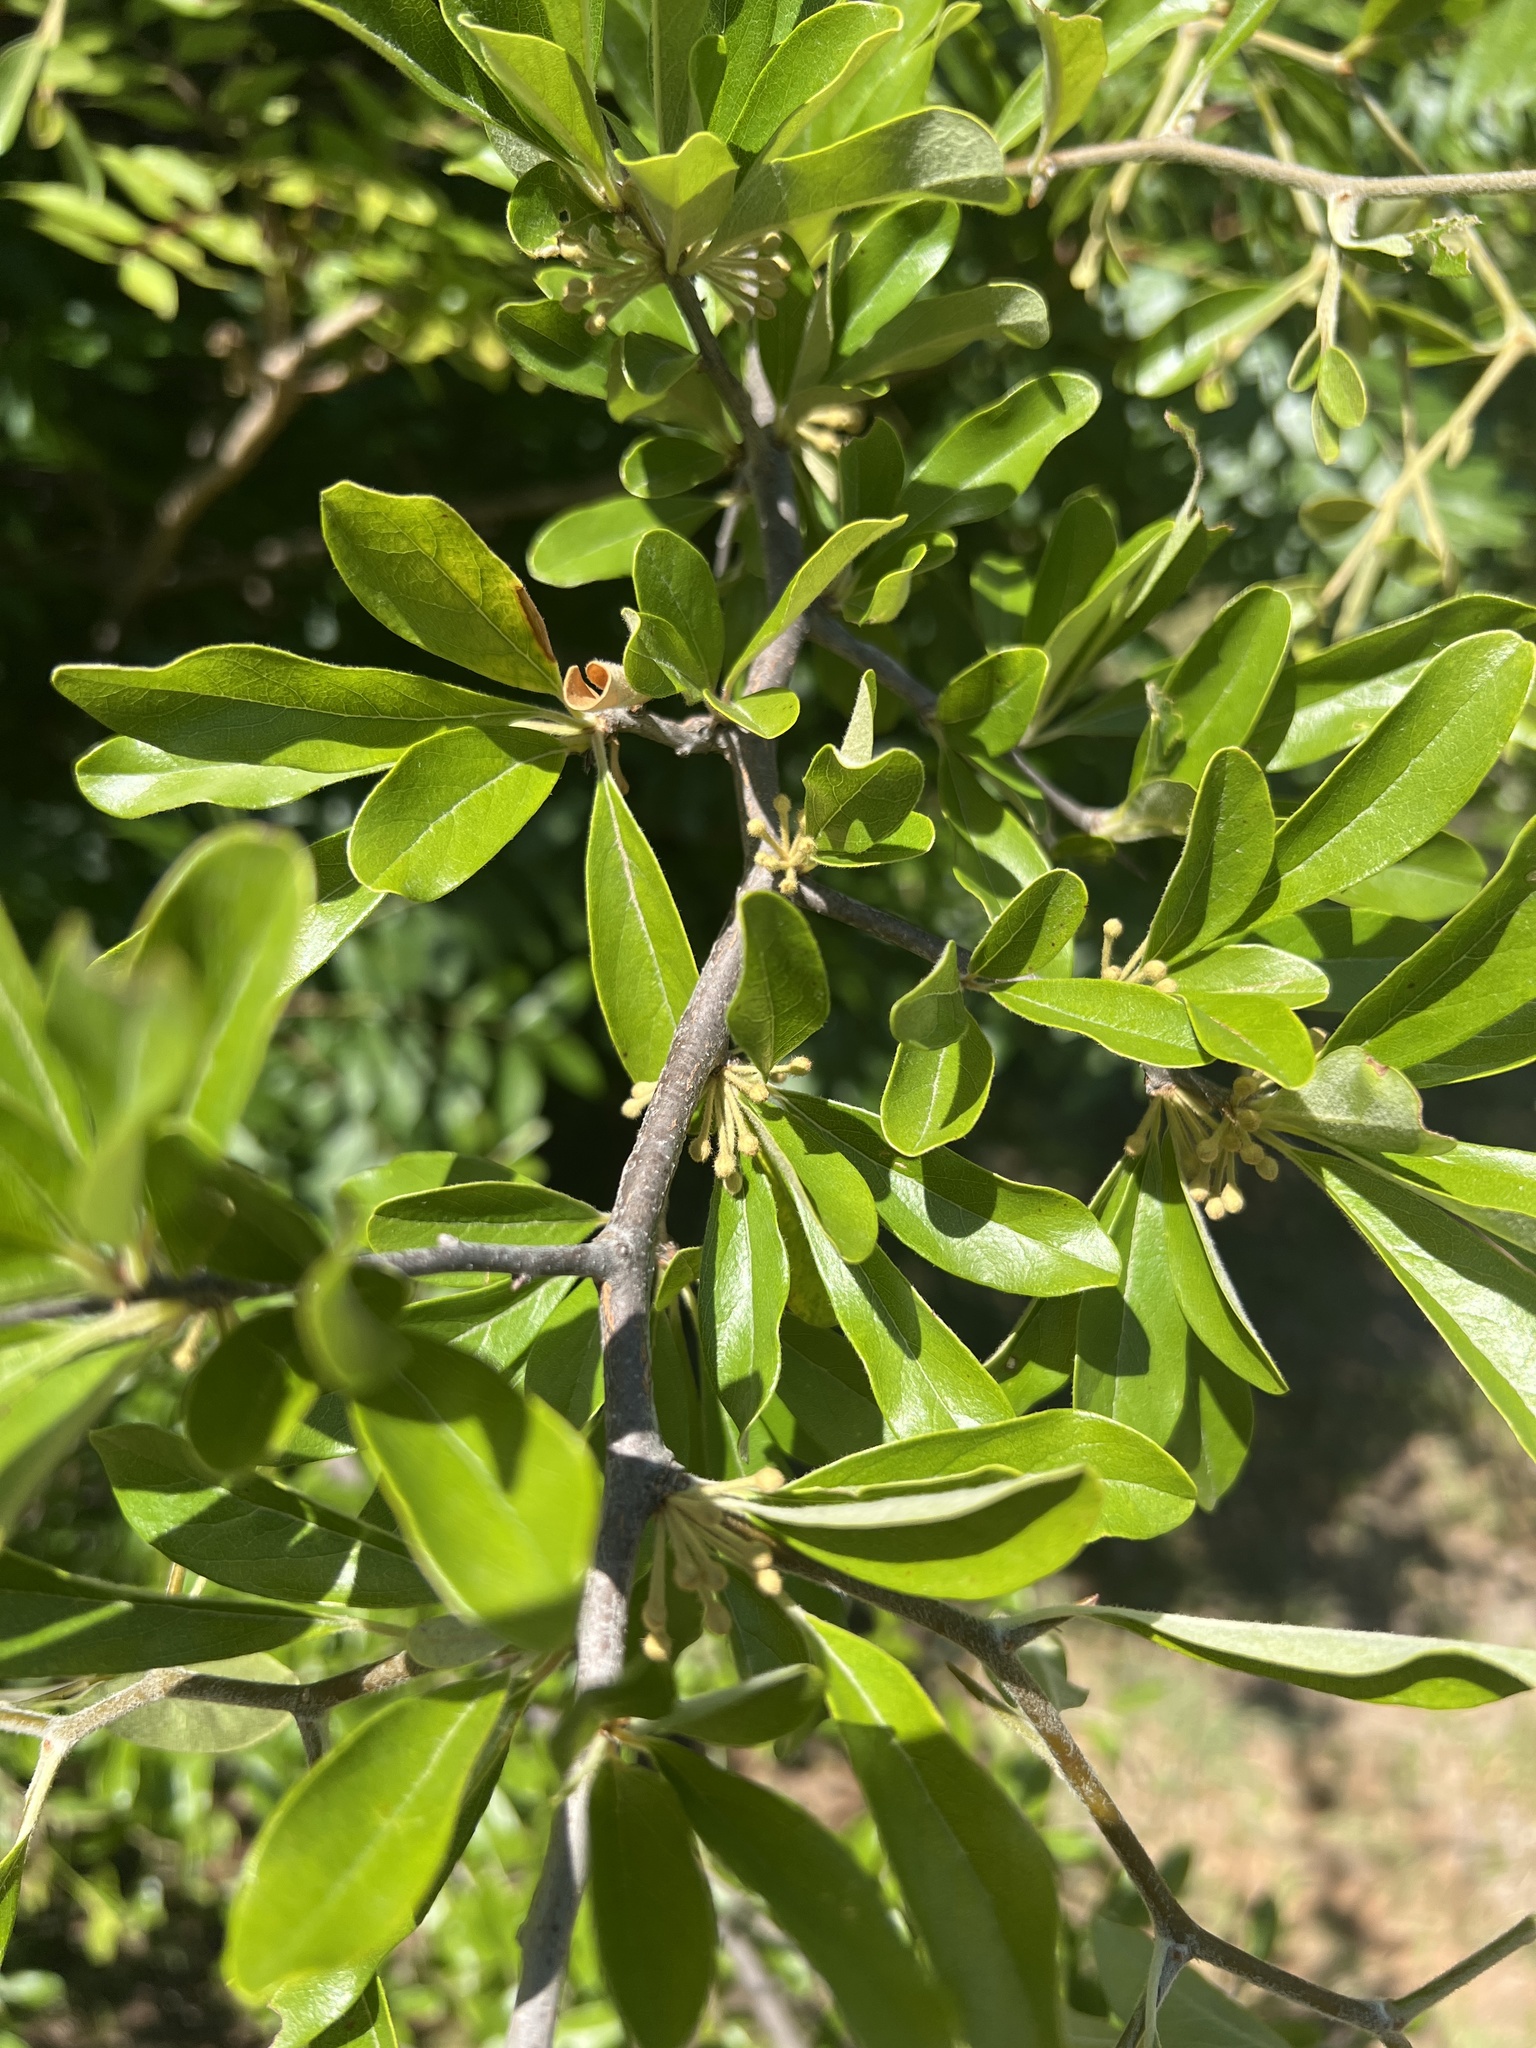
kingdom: Plantae
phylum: Tracheophyta
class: Magnoliopsida
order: Ericales
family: Sapotaceae
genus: Sideroxylon
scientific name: Sideroxylon lanuginosum
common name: Chittamwood
